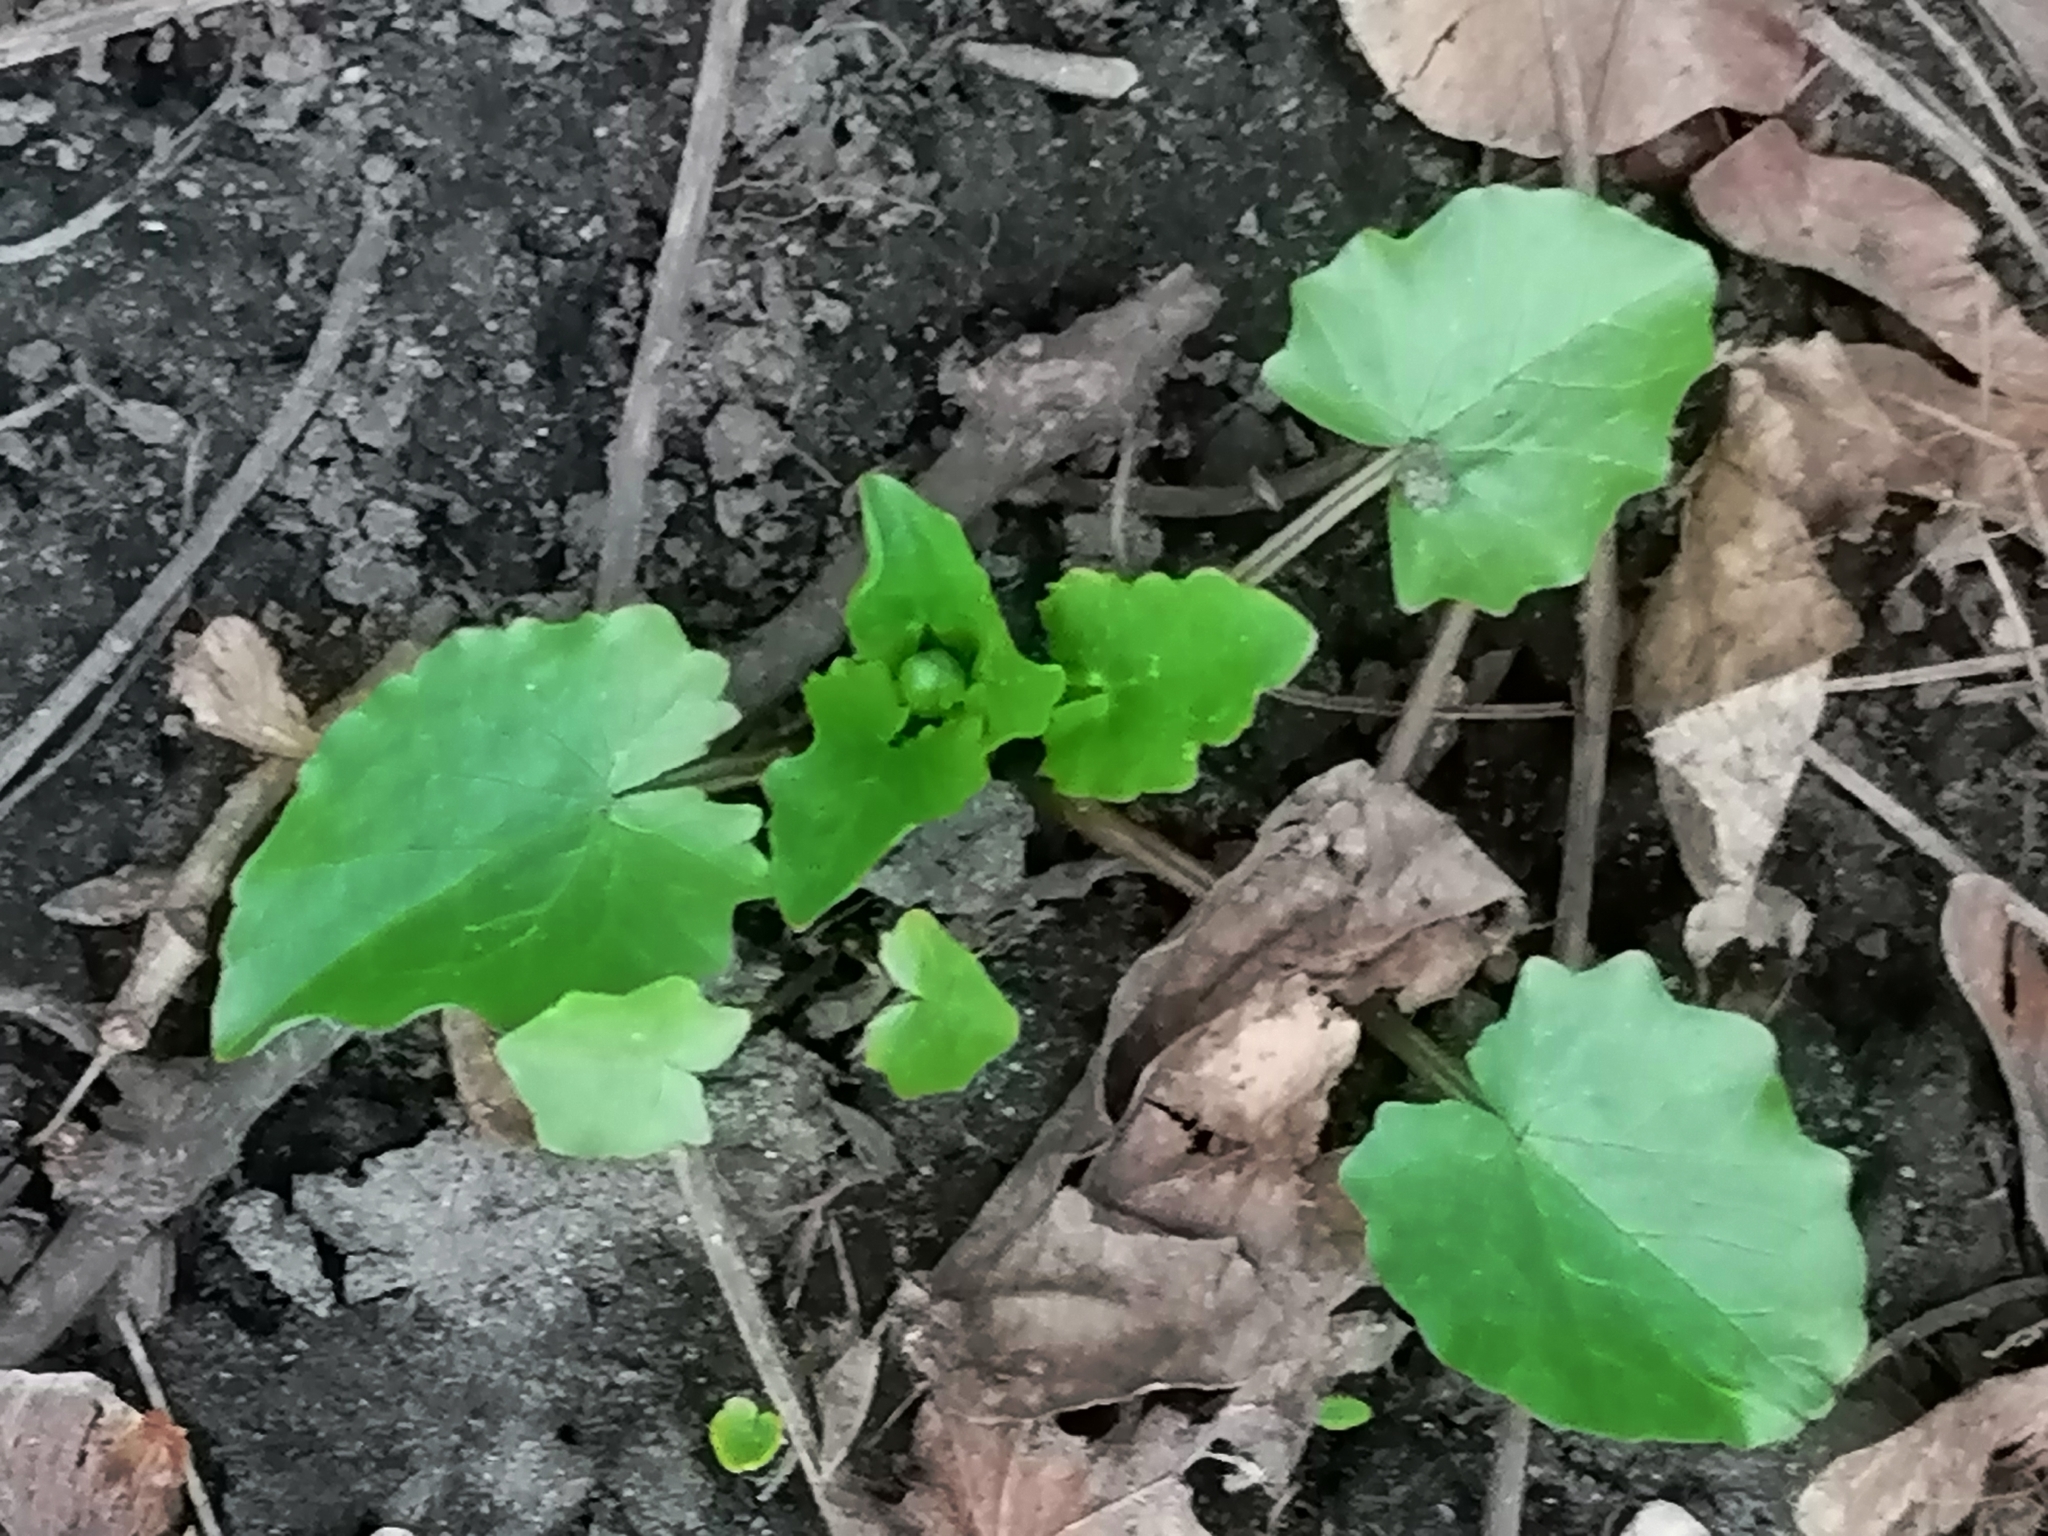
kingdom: Plantae
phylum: Tracheophyta
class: Magnoliopsida
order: Ranunculales
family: Ranunculaceae
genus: Ficaria
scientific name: Ficaria verna
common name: Lesser celandine
